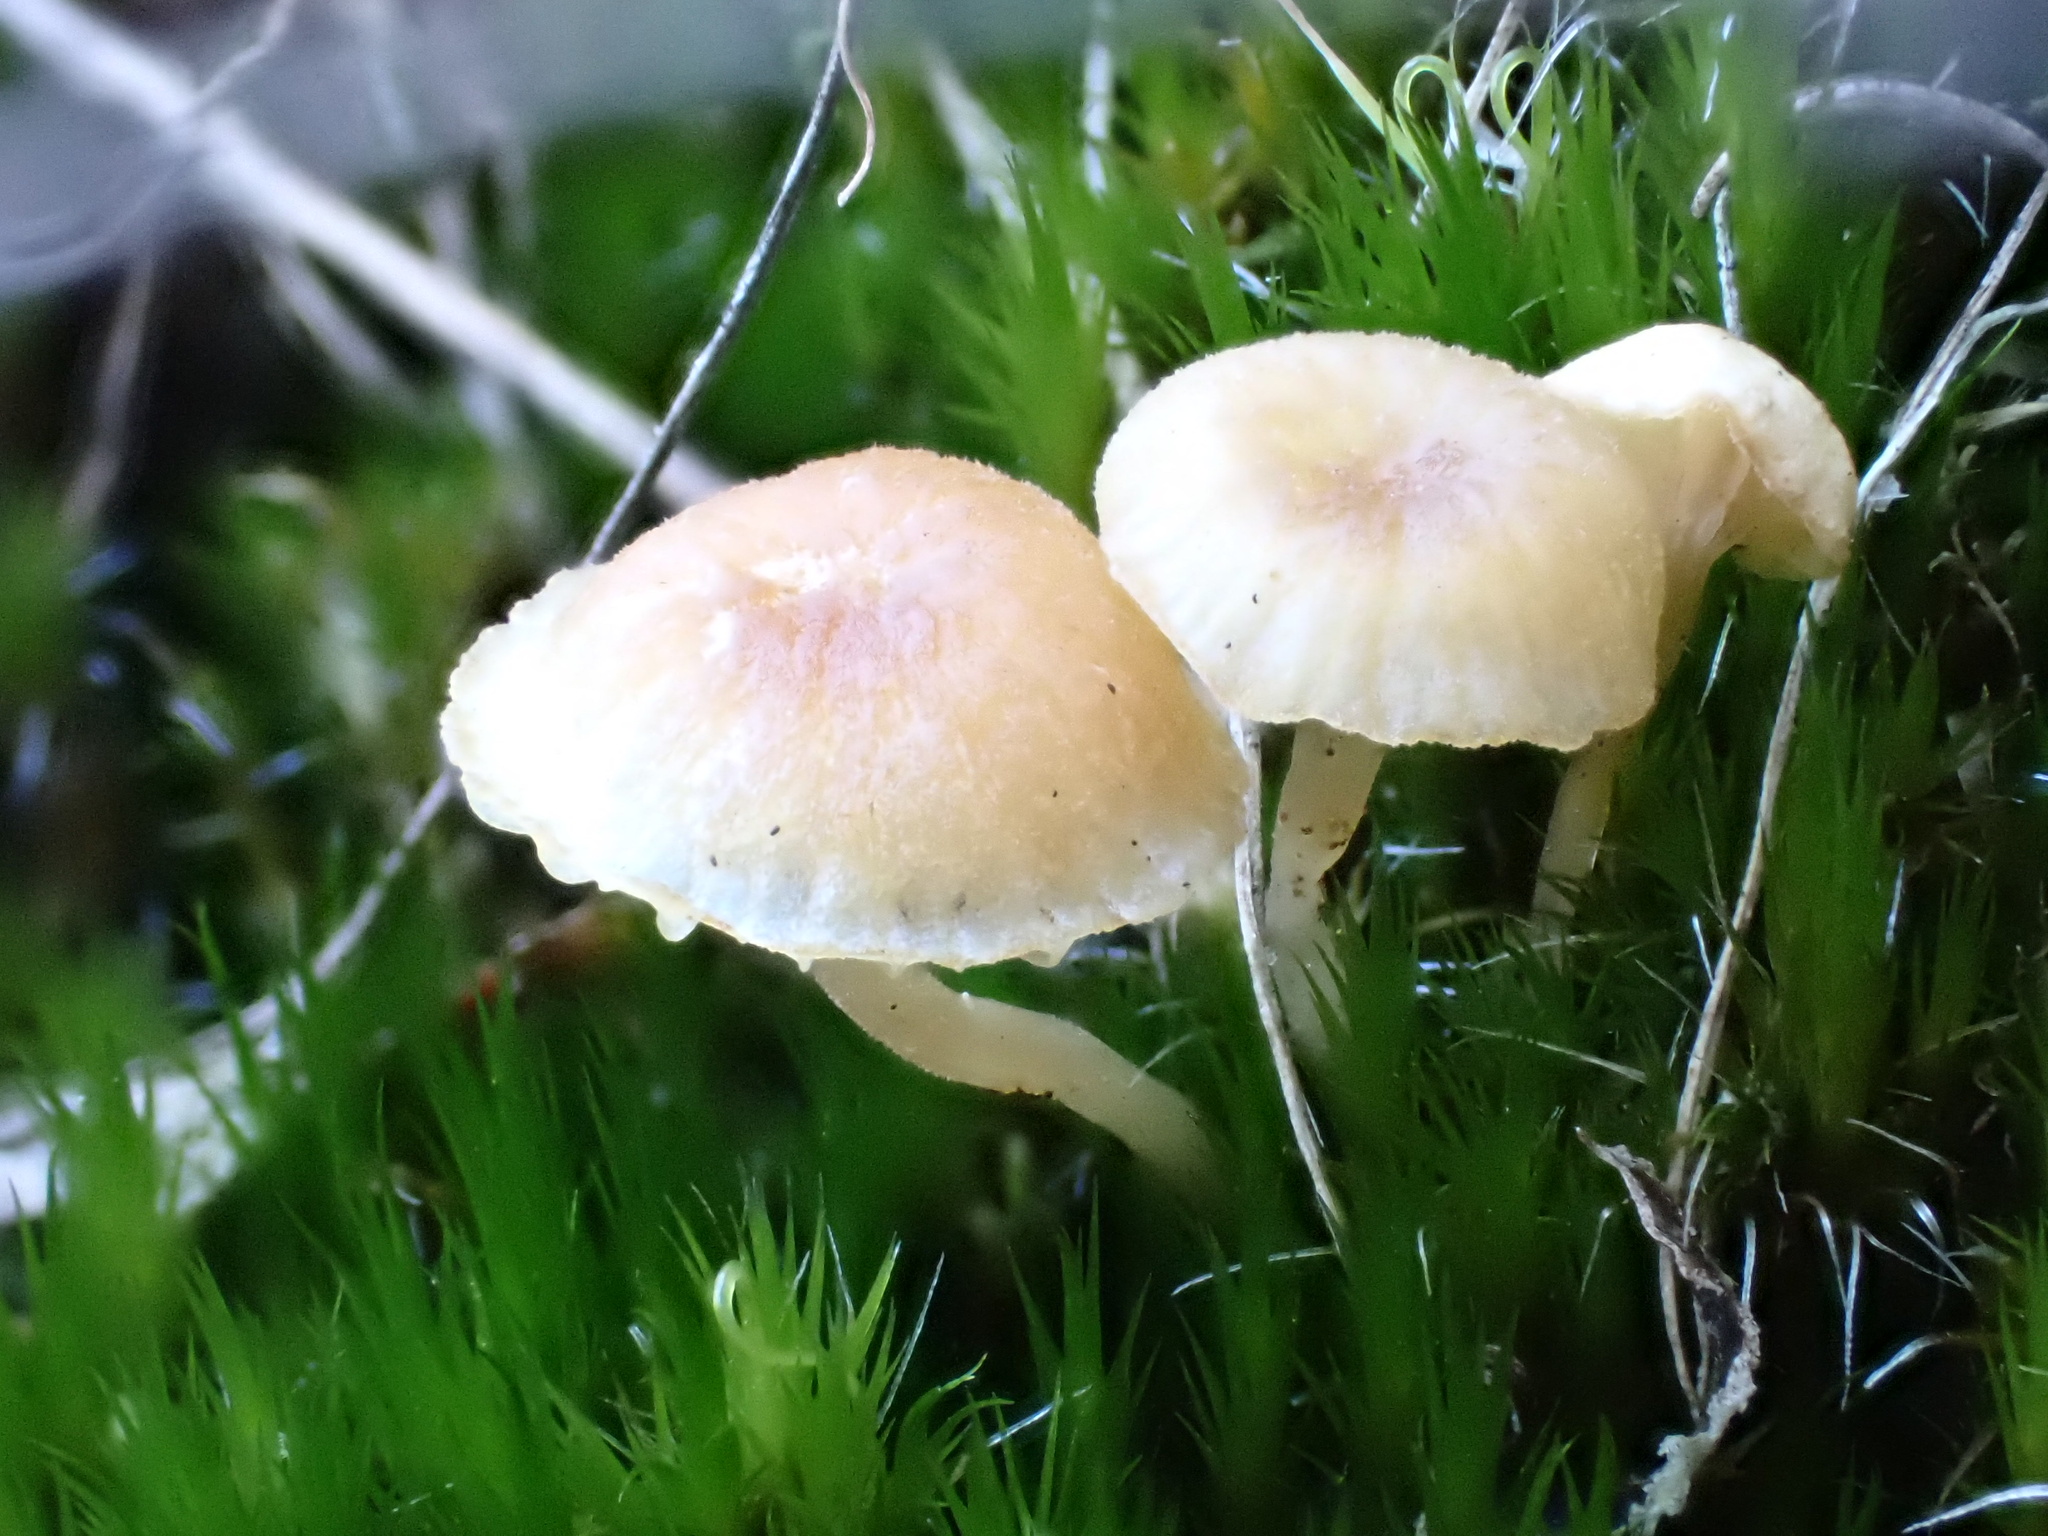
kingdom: Fungi
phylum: Basidiomycota
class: Agaricomycetes
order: Hymenochaetales
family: Rickenellaceae
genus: Rickenella
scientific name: Rickenella fibula
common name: Orange mosscap
